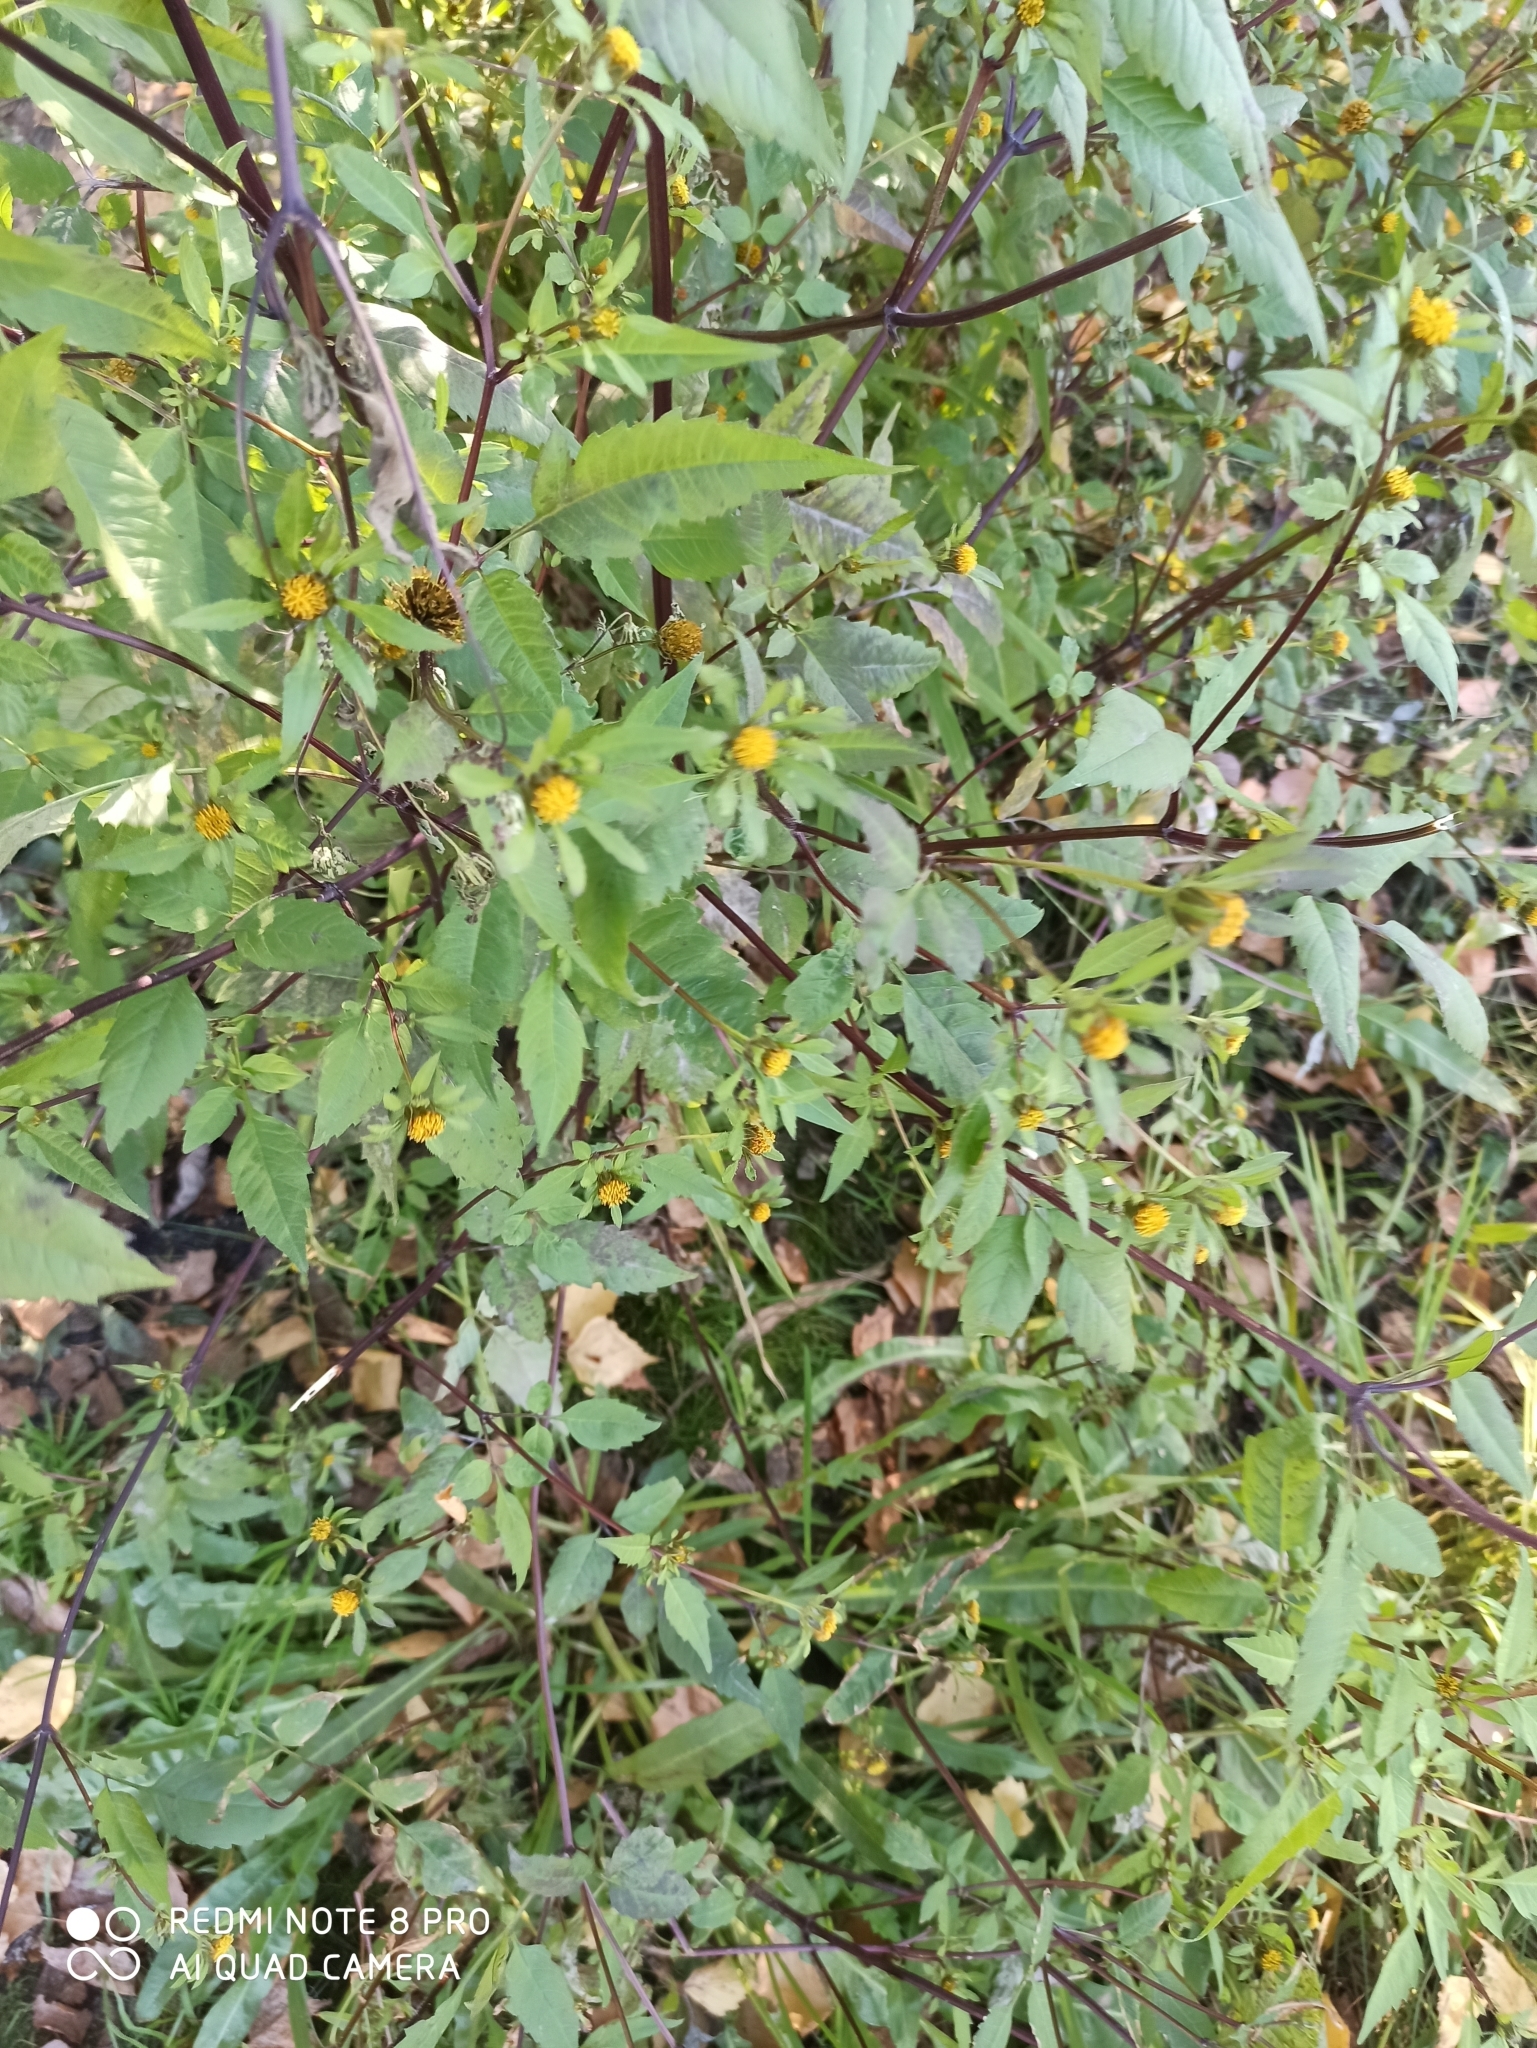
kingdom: Plantae
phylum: Tracheophyta
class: Magnoliopsida
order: Asterales
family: Asteraceae
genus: Bidens
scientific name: Bidens frondosa
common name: Beggarticks
